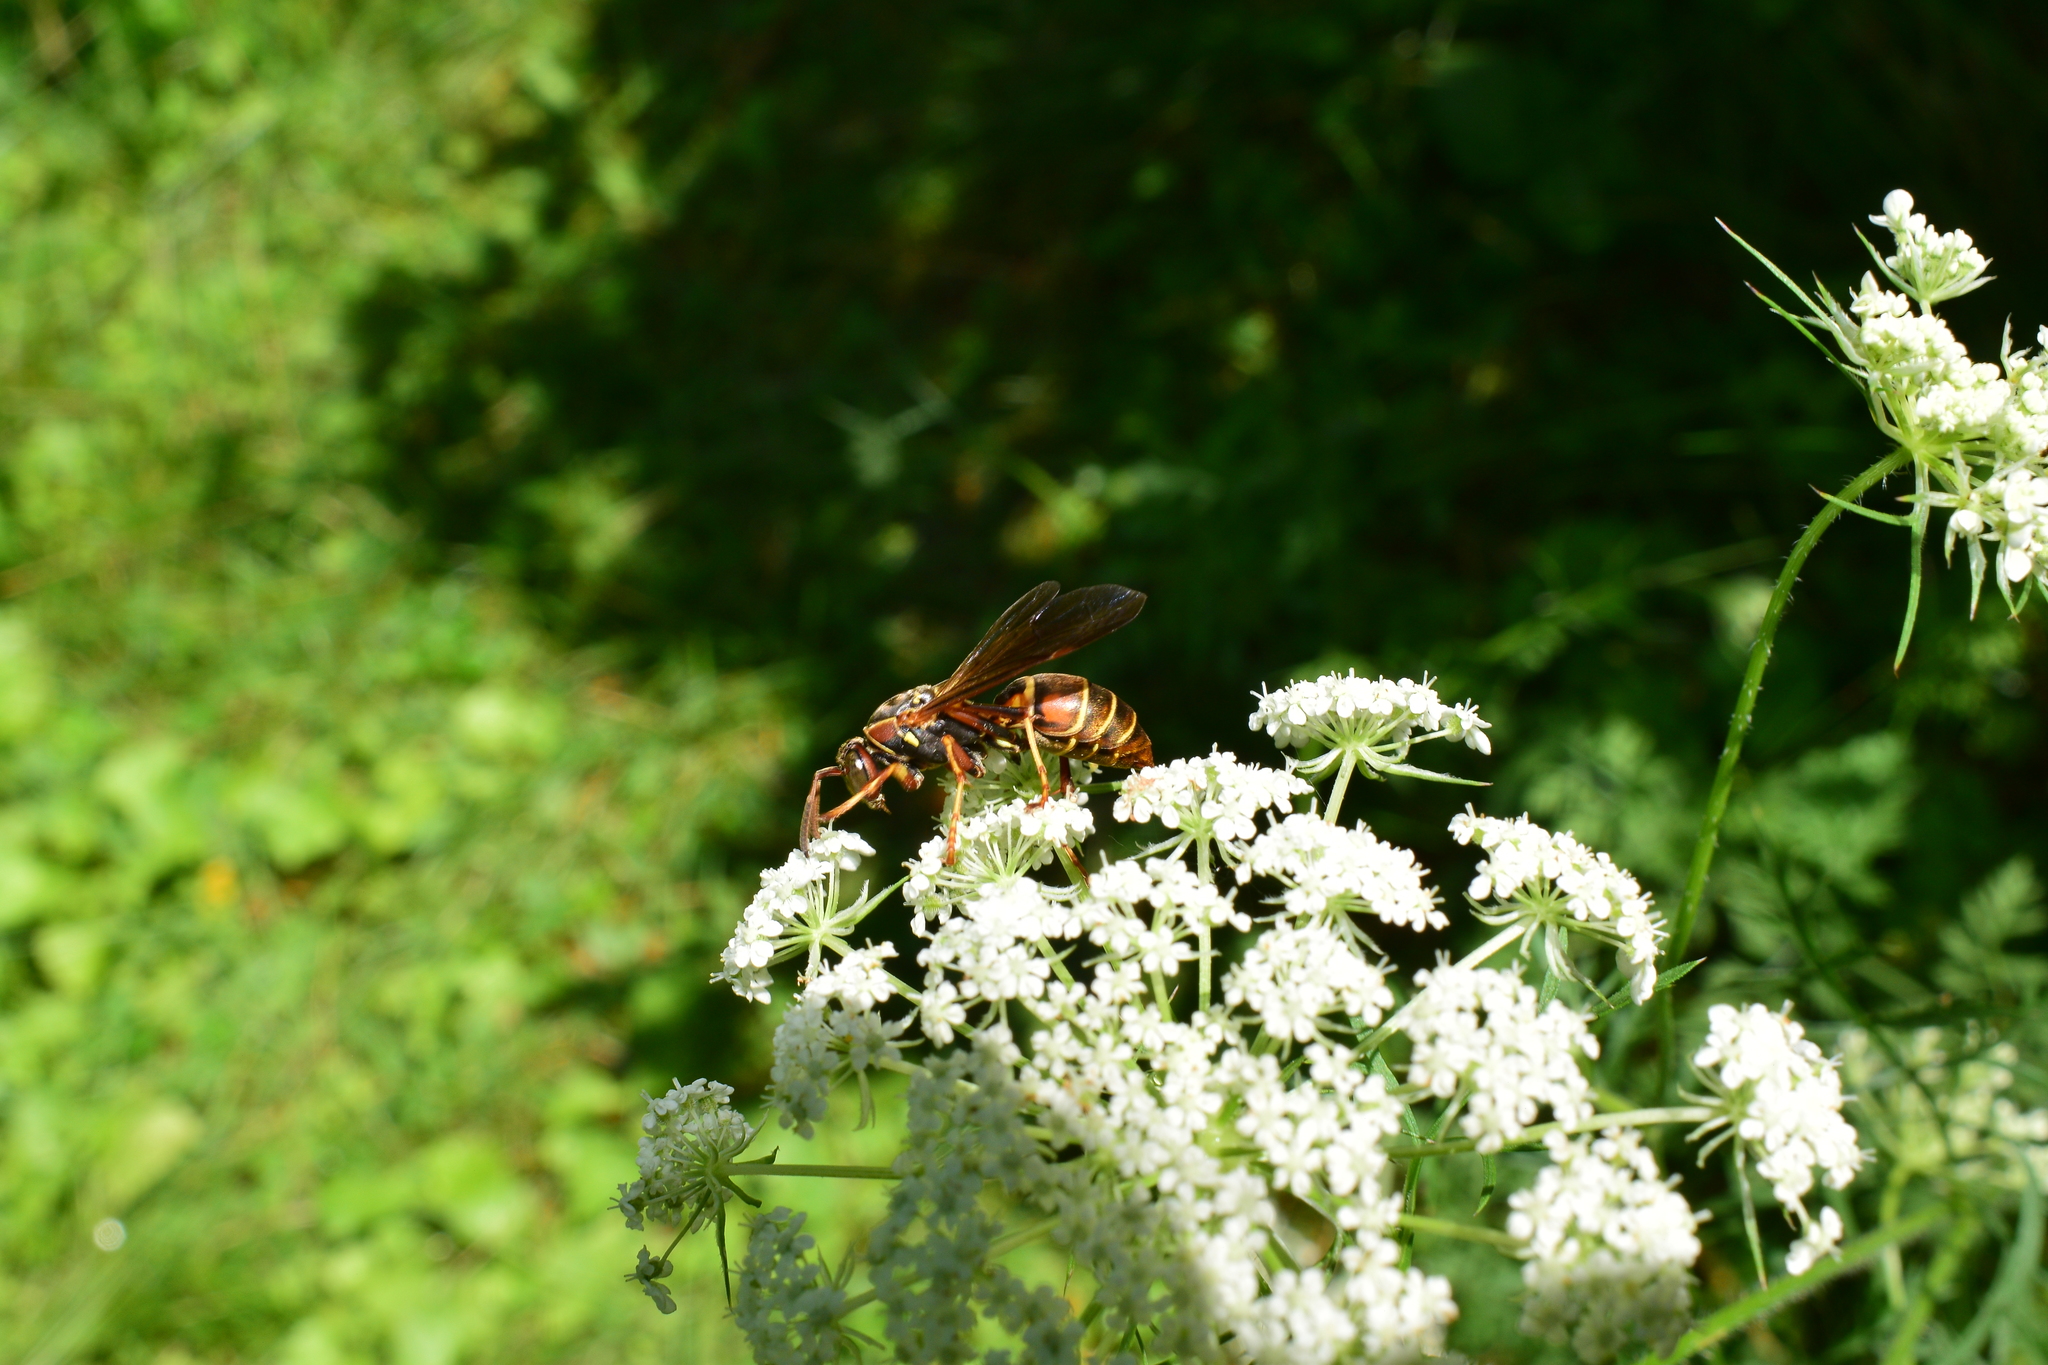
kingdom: Animalia
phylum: Arthropoda
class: Insecta
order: Hymenoptera
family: Eumenidae
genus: Polistes
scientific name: Polistes fuscatus
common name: Dark paper wasp
